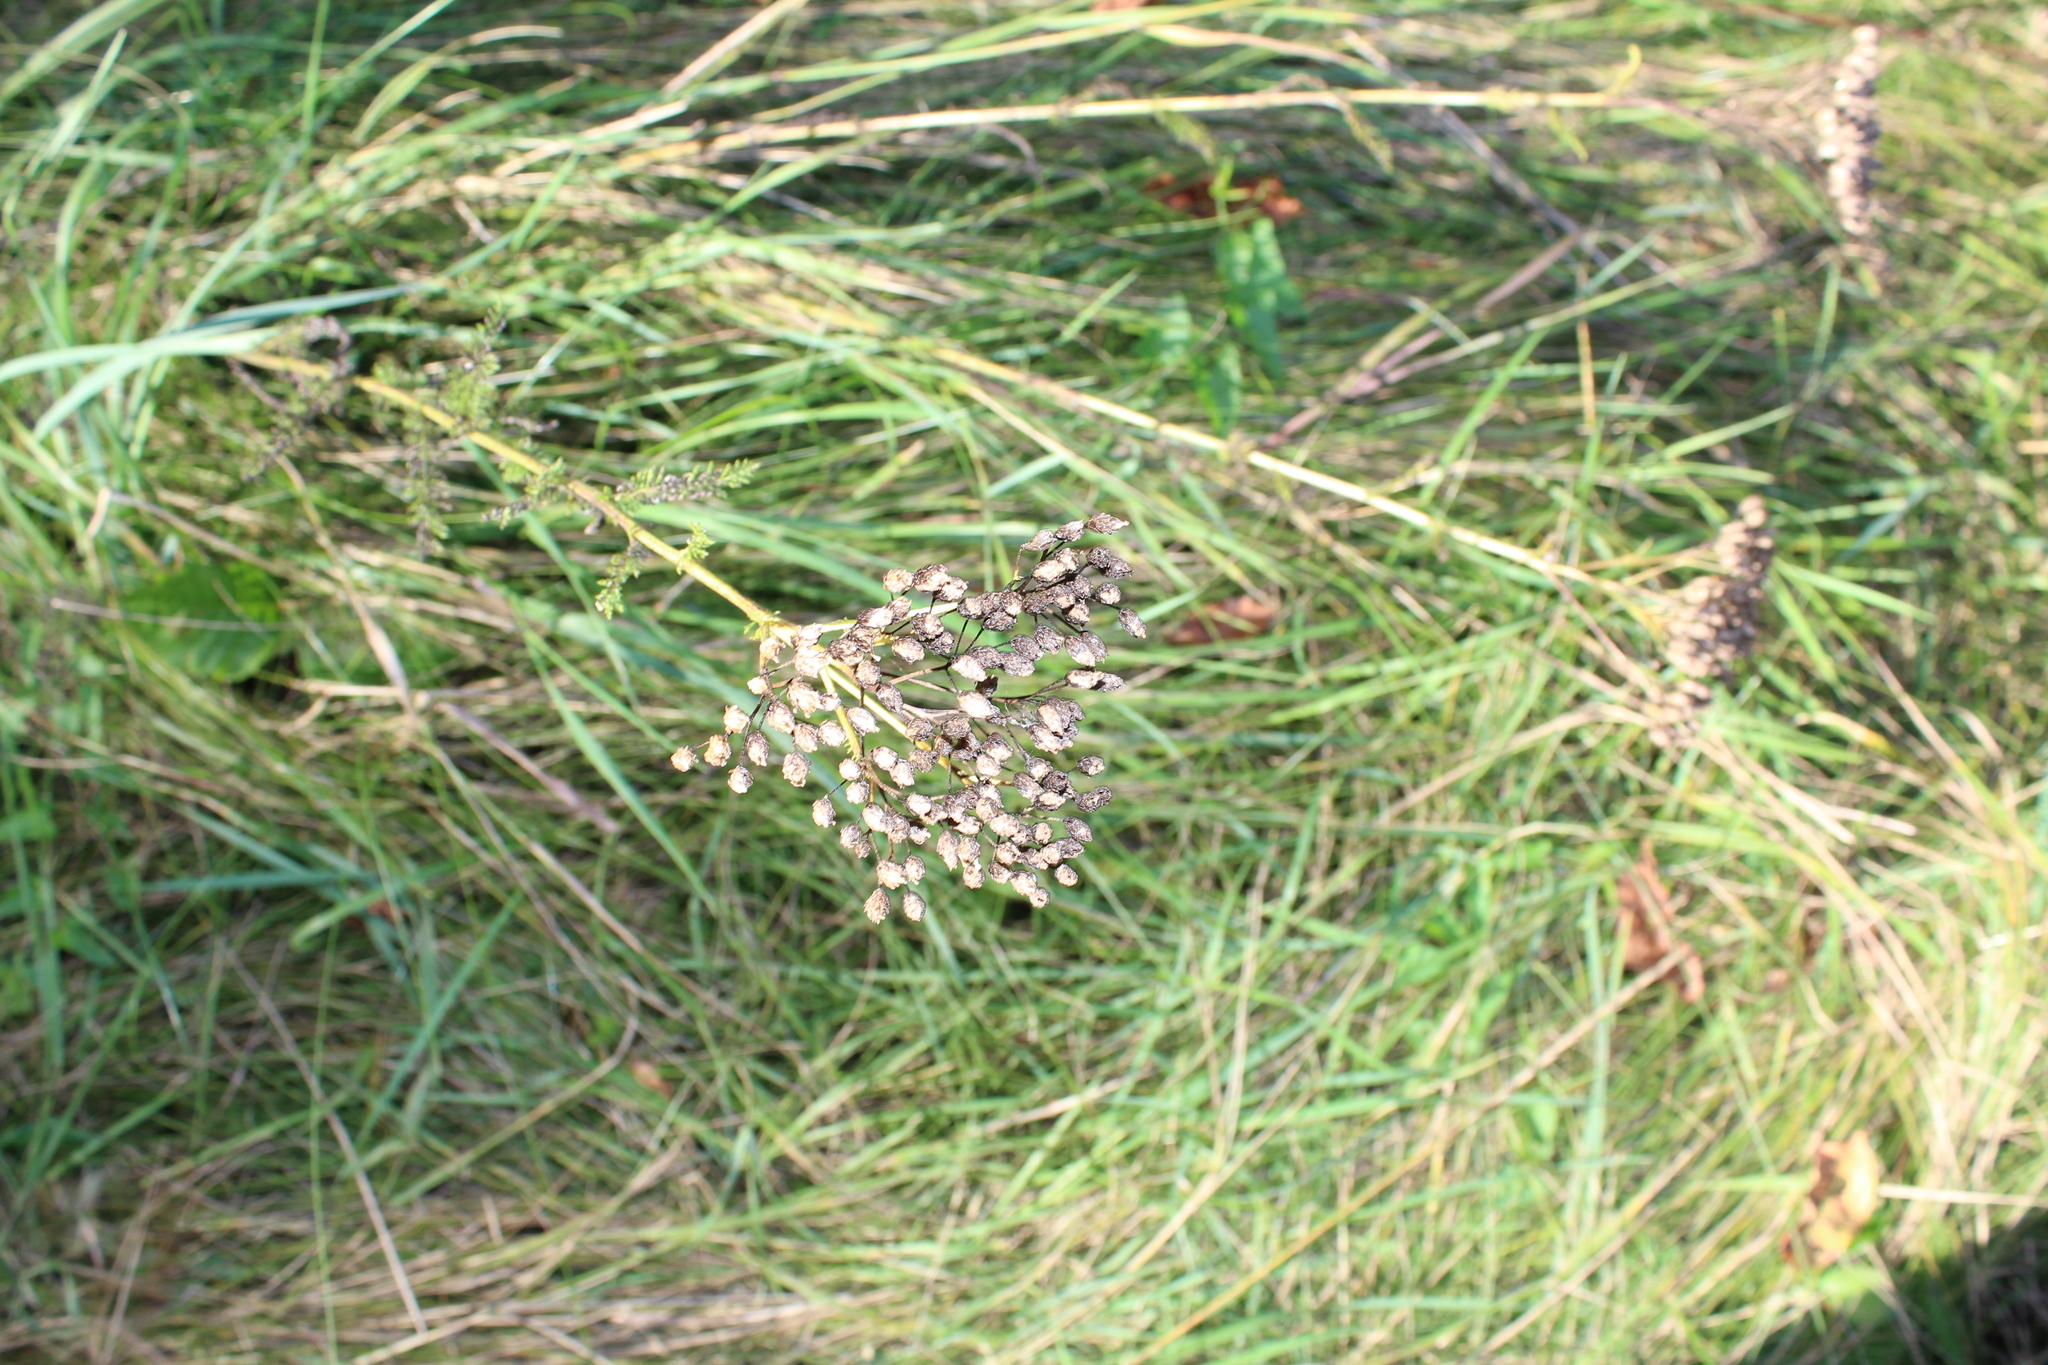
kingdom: Plantae
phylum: Tracheophyta
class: Magnoliopsida
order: Asterales
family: Asteraceae
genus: Achillea
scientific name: Achillea millefolium
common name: Yarrow
